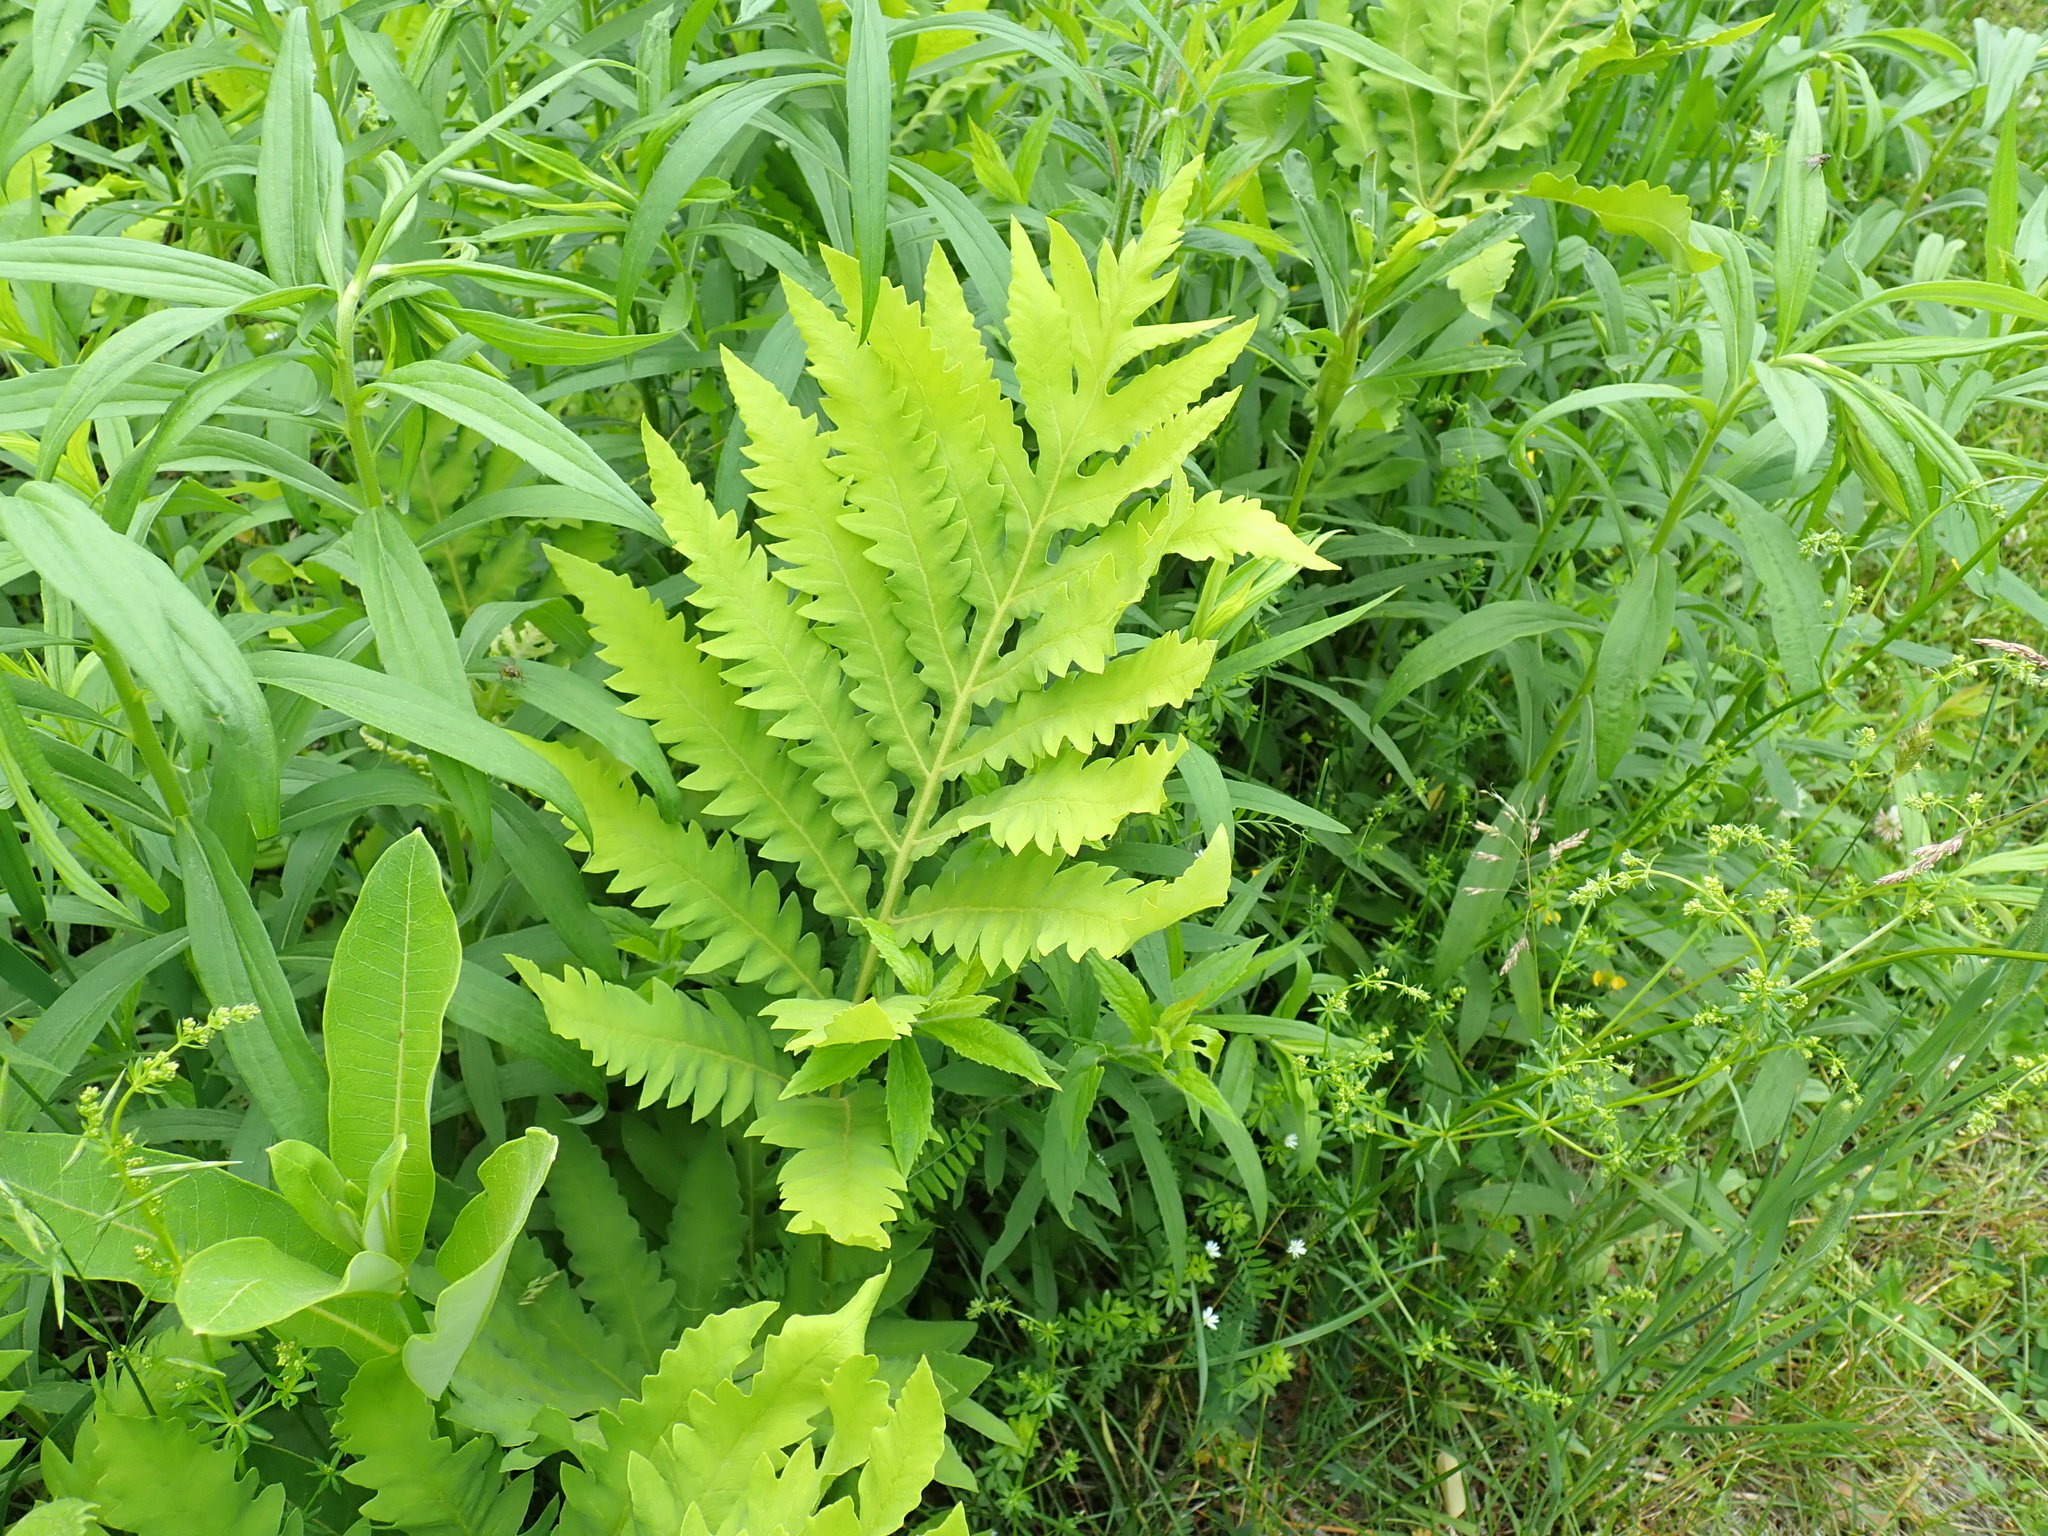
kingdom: Plantae
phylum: Tracheophyta
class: Polypodiopsida
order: Polypodiales
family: Onocleaceae
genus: Onoclea
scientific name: Onoclea sensibilis
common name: Sensitive fern
